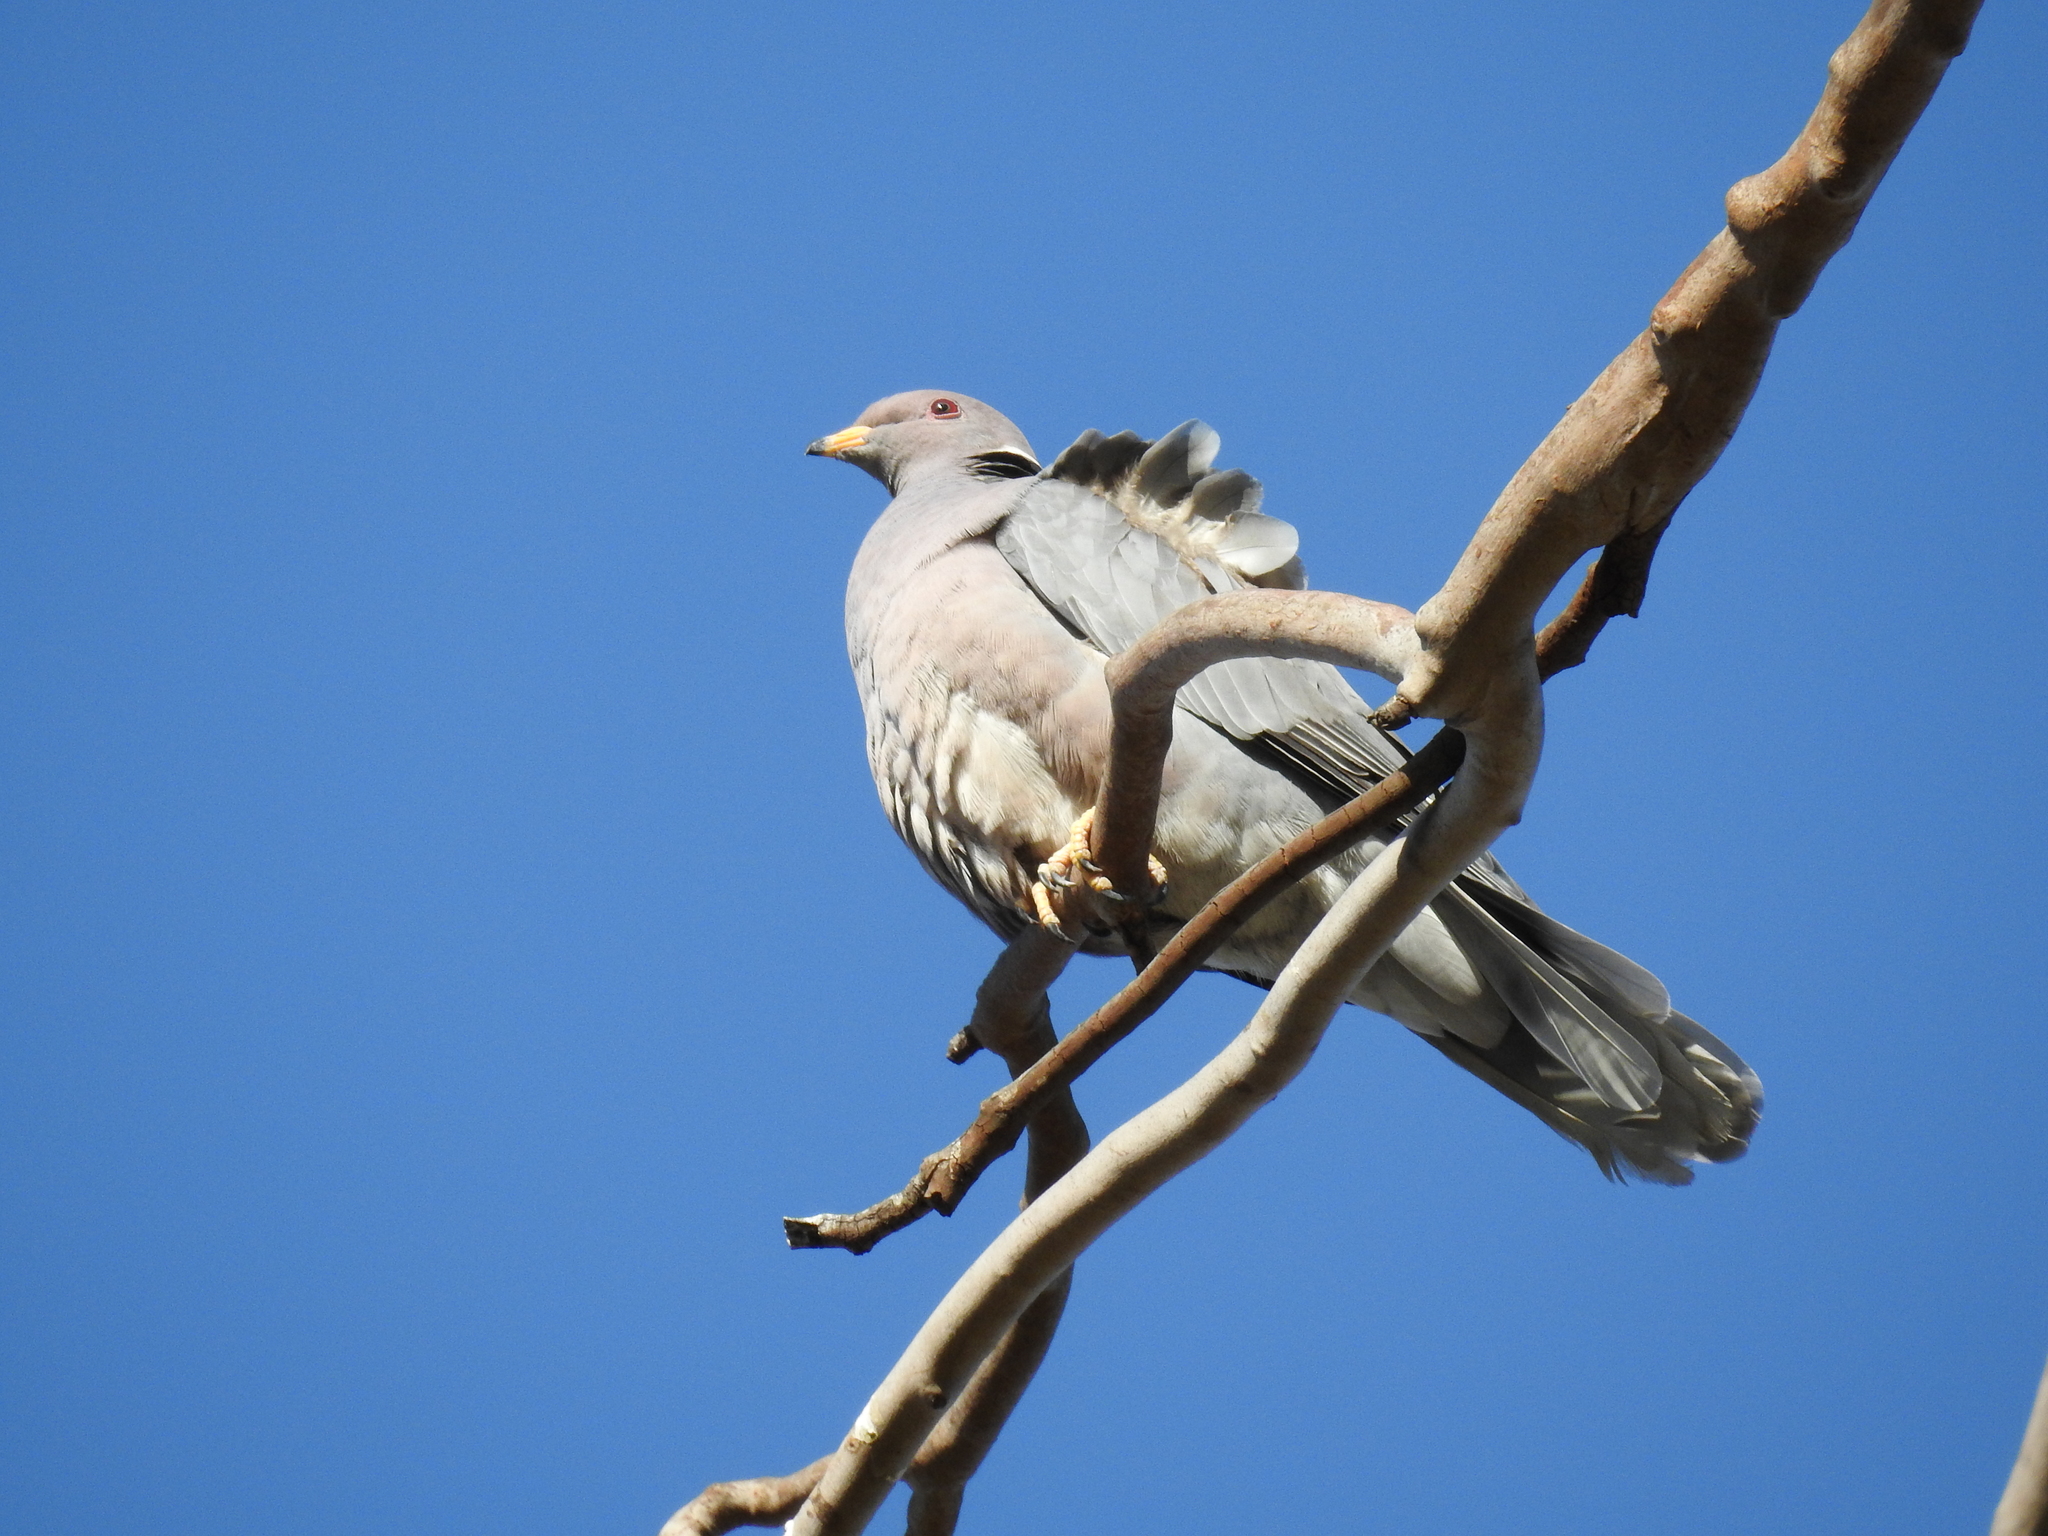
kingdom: Animalia
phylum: Chordata
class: Aves
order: Columbiformes
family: Columbidae
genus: Patagioenas
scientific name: Patagioenas fasciata
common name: Band-tailed pigeon
